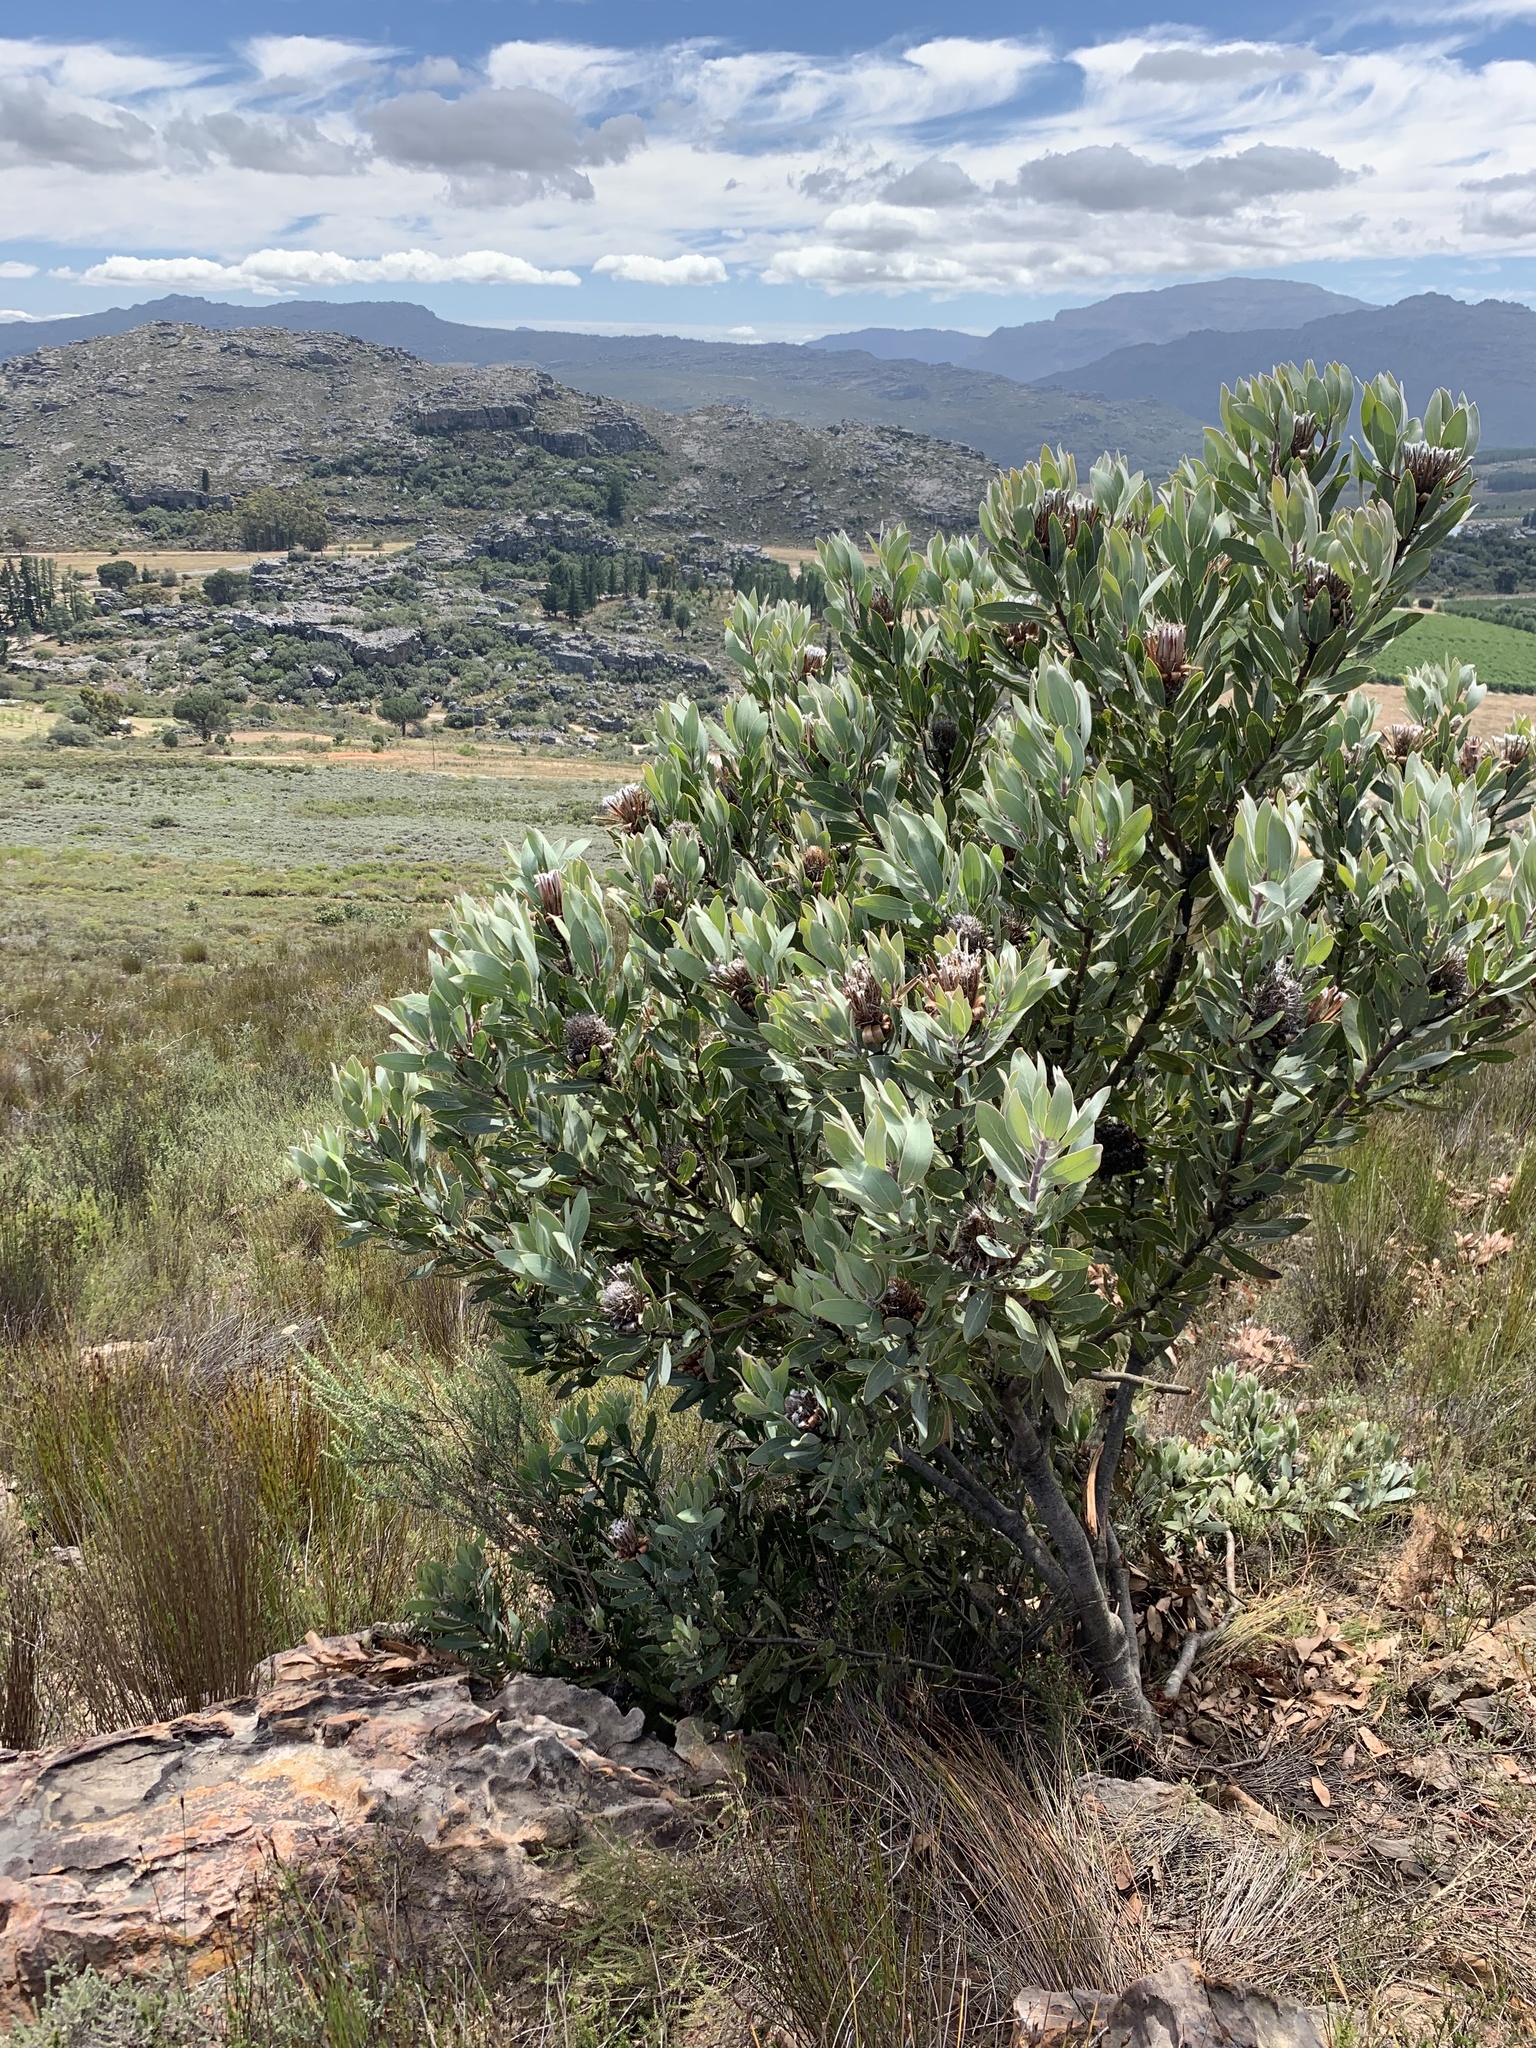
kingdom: Plantae
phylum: Tracheophyta
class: Magnoliopsida
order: Proteales
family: Proteaceae
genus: Protea
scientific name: Protea laurifolia
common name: Grey-leaf sugarbsh
